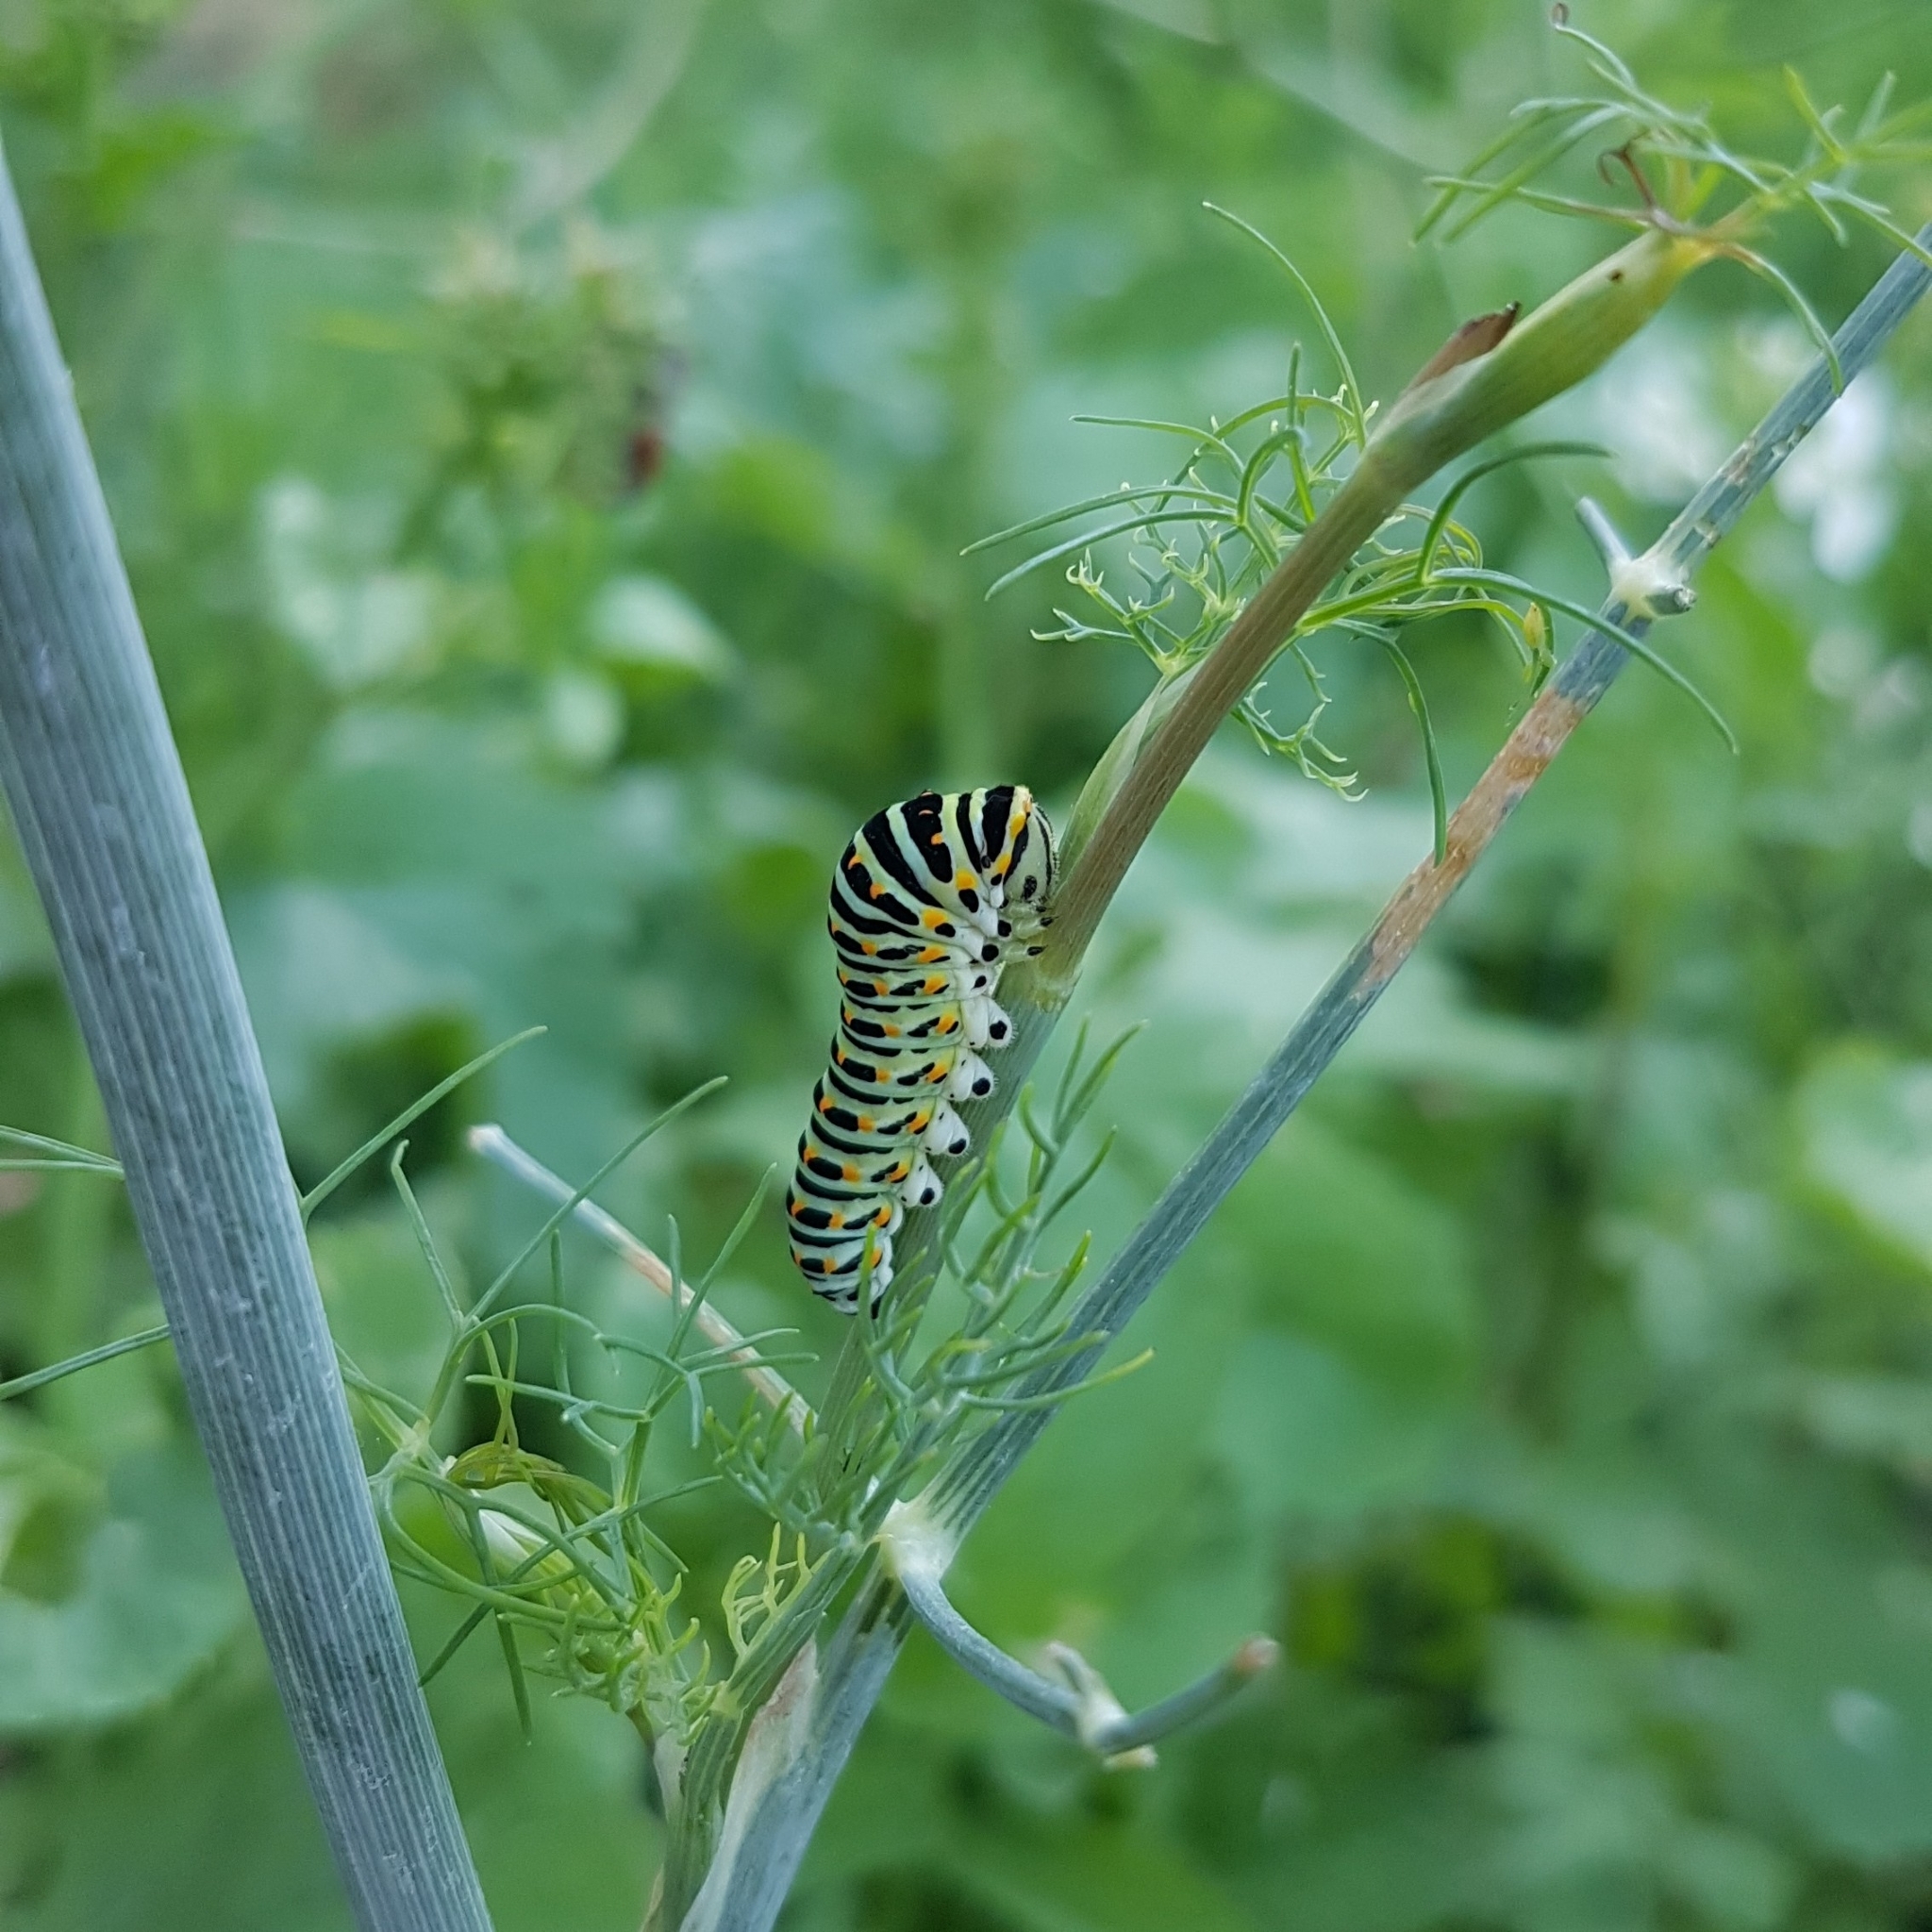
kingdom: Animalia
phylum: Arthropoda
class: Insecta
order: Lepidoptera
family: Papilionidae
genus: Papilio
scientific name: Papilio machaon
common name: Swallowtail
